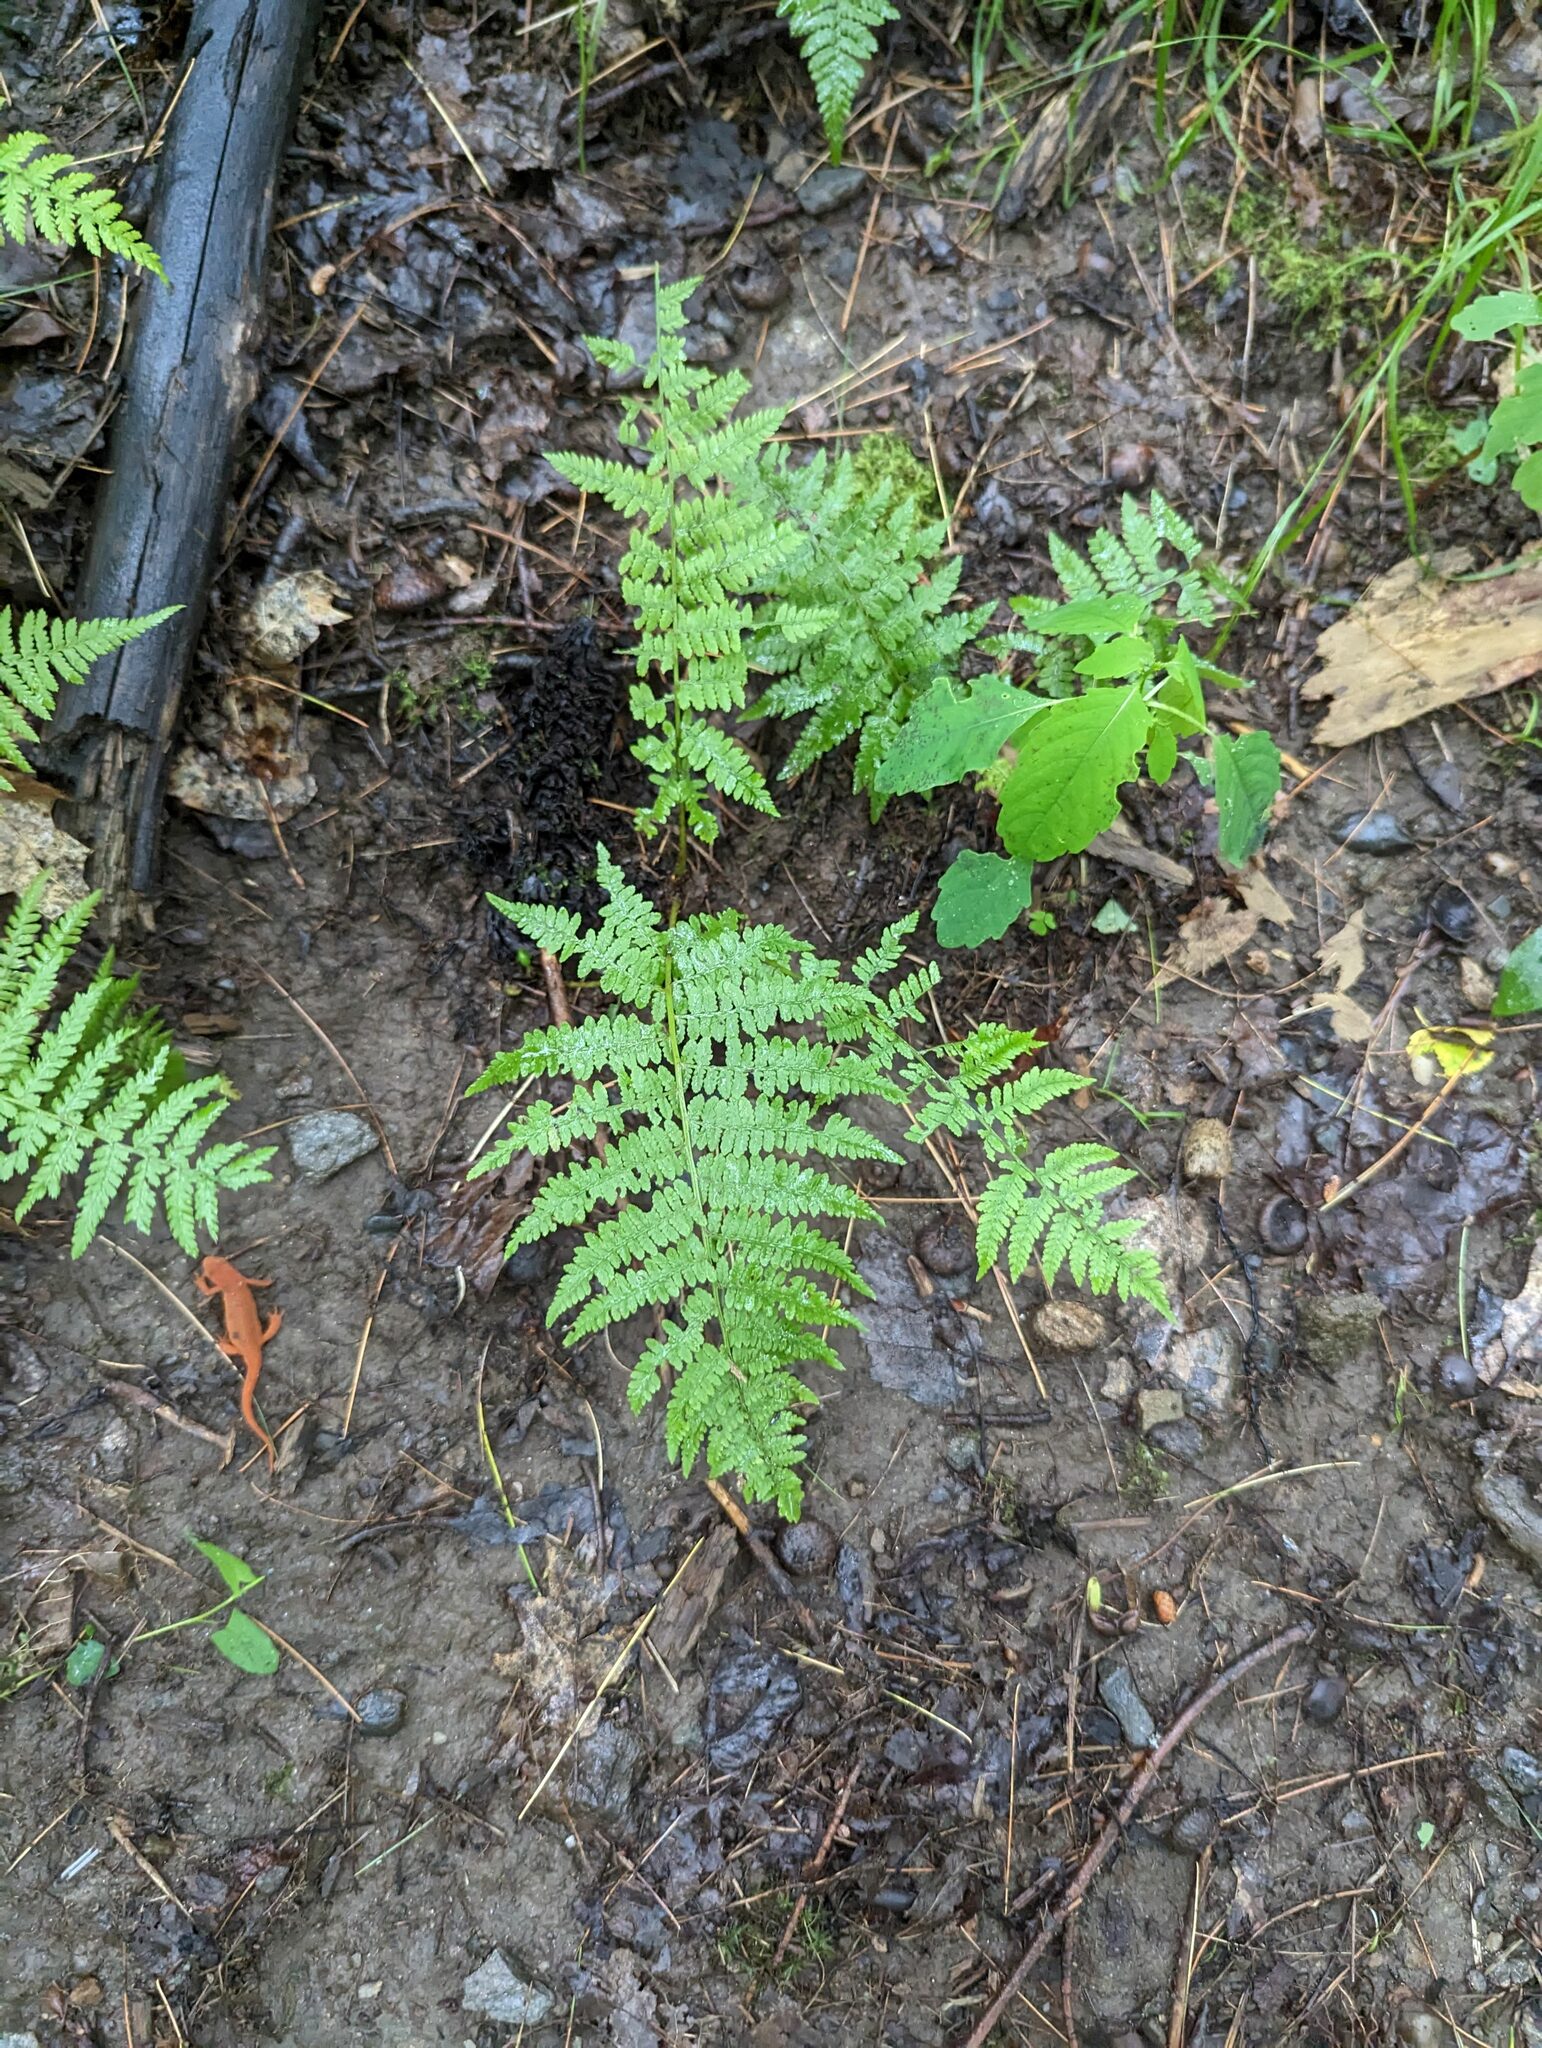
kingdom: Plantae
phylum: Tracheophyta
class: Polypodiopsida
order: Polypodiales
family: Athyriaceae
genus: Athyrium
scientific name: Athyrium angustum
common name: Northern lady fern
